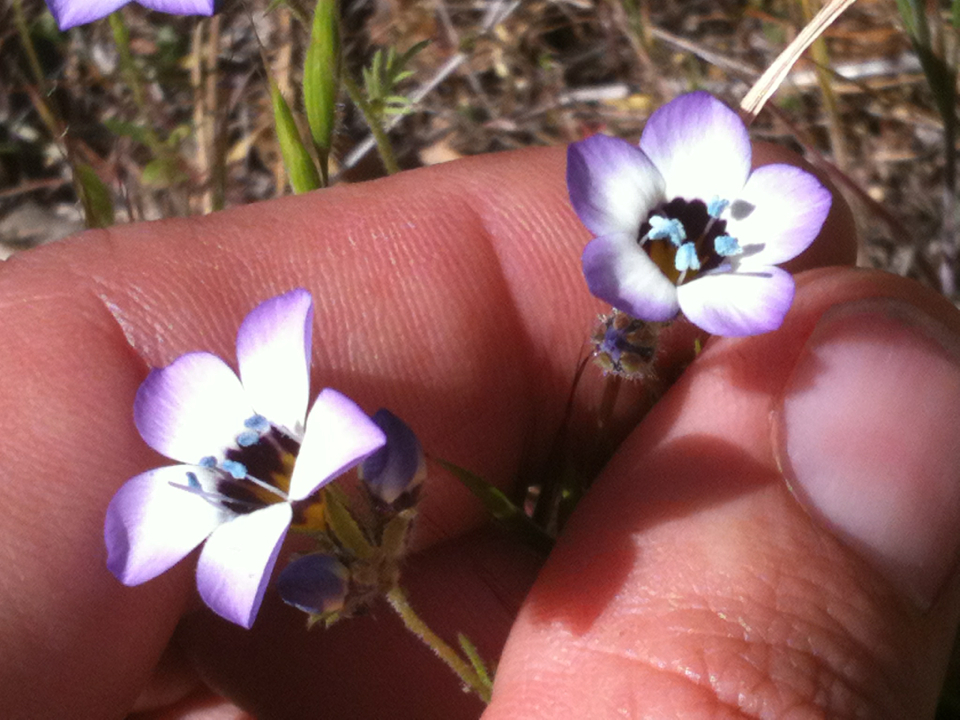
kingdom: Plantae
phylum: Tracheophyta
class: Magnoliopsida
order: Ericales
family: Polemoniaceae
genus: Gilia
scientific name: Gilia tricolor
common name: Bird's-eyes
